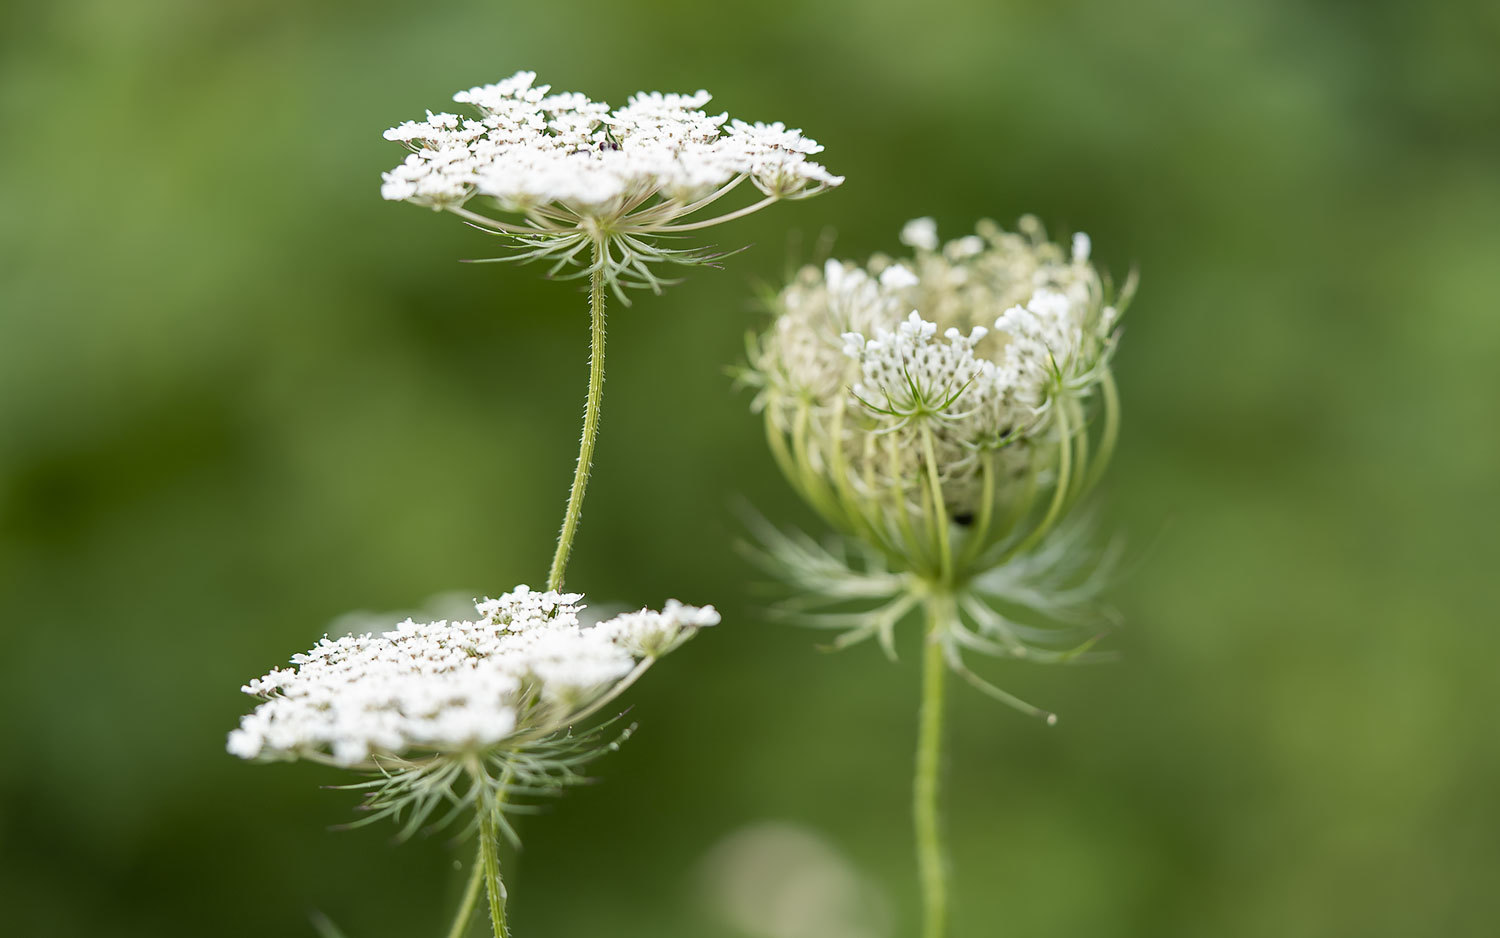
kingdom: Plantae
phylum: Tracheophyta
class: Magnoliopsida
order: Apiales
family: Apiaceae
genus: Daucus
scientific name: Daucus carota
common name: Wild carrot
